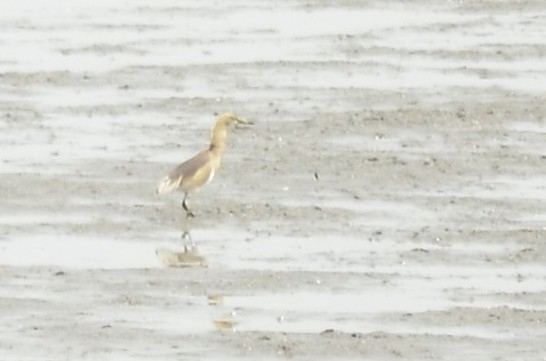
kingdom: Animalia
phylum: Chordata
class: Aves
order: Pelecaniformes
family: Ardeidae
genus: Ardeola
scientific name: Ardeola grayii
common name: Indian pond heron
